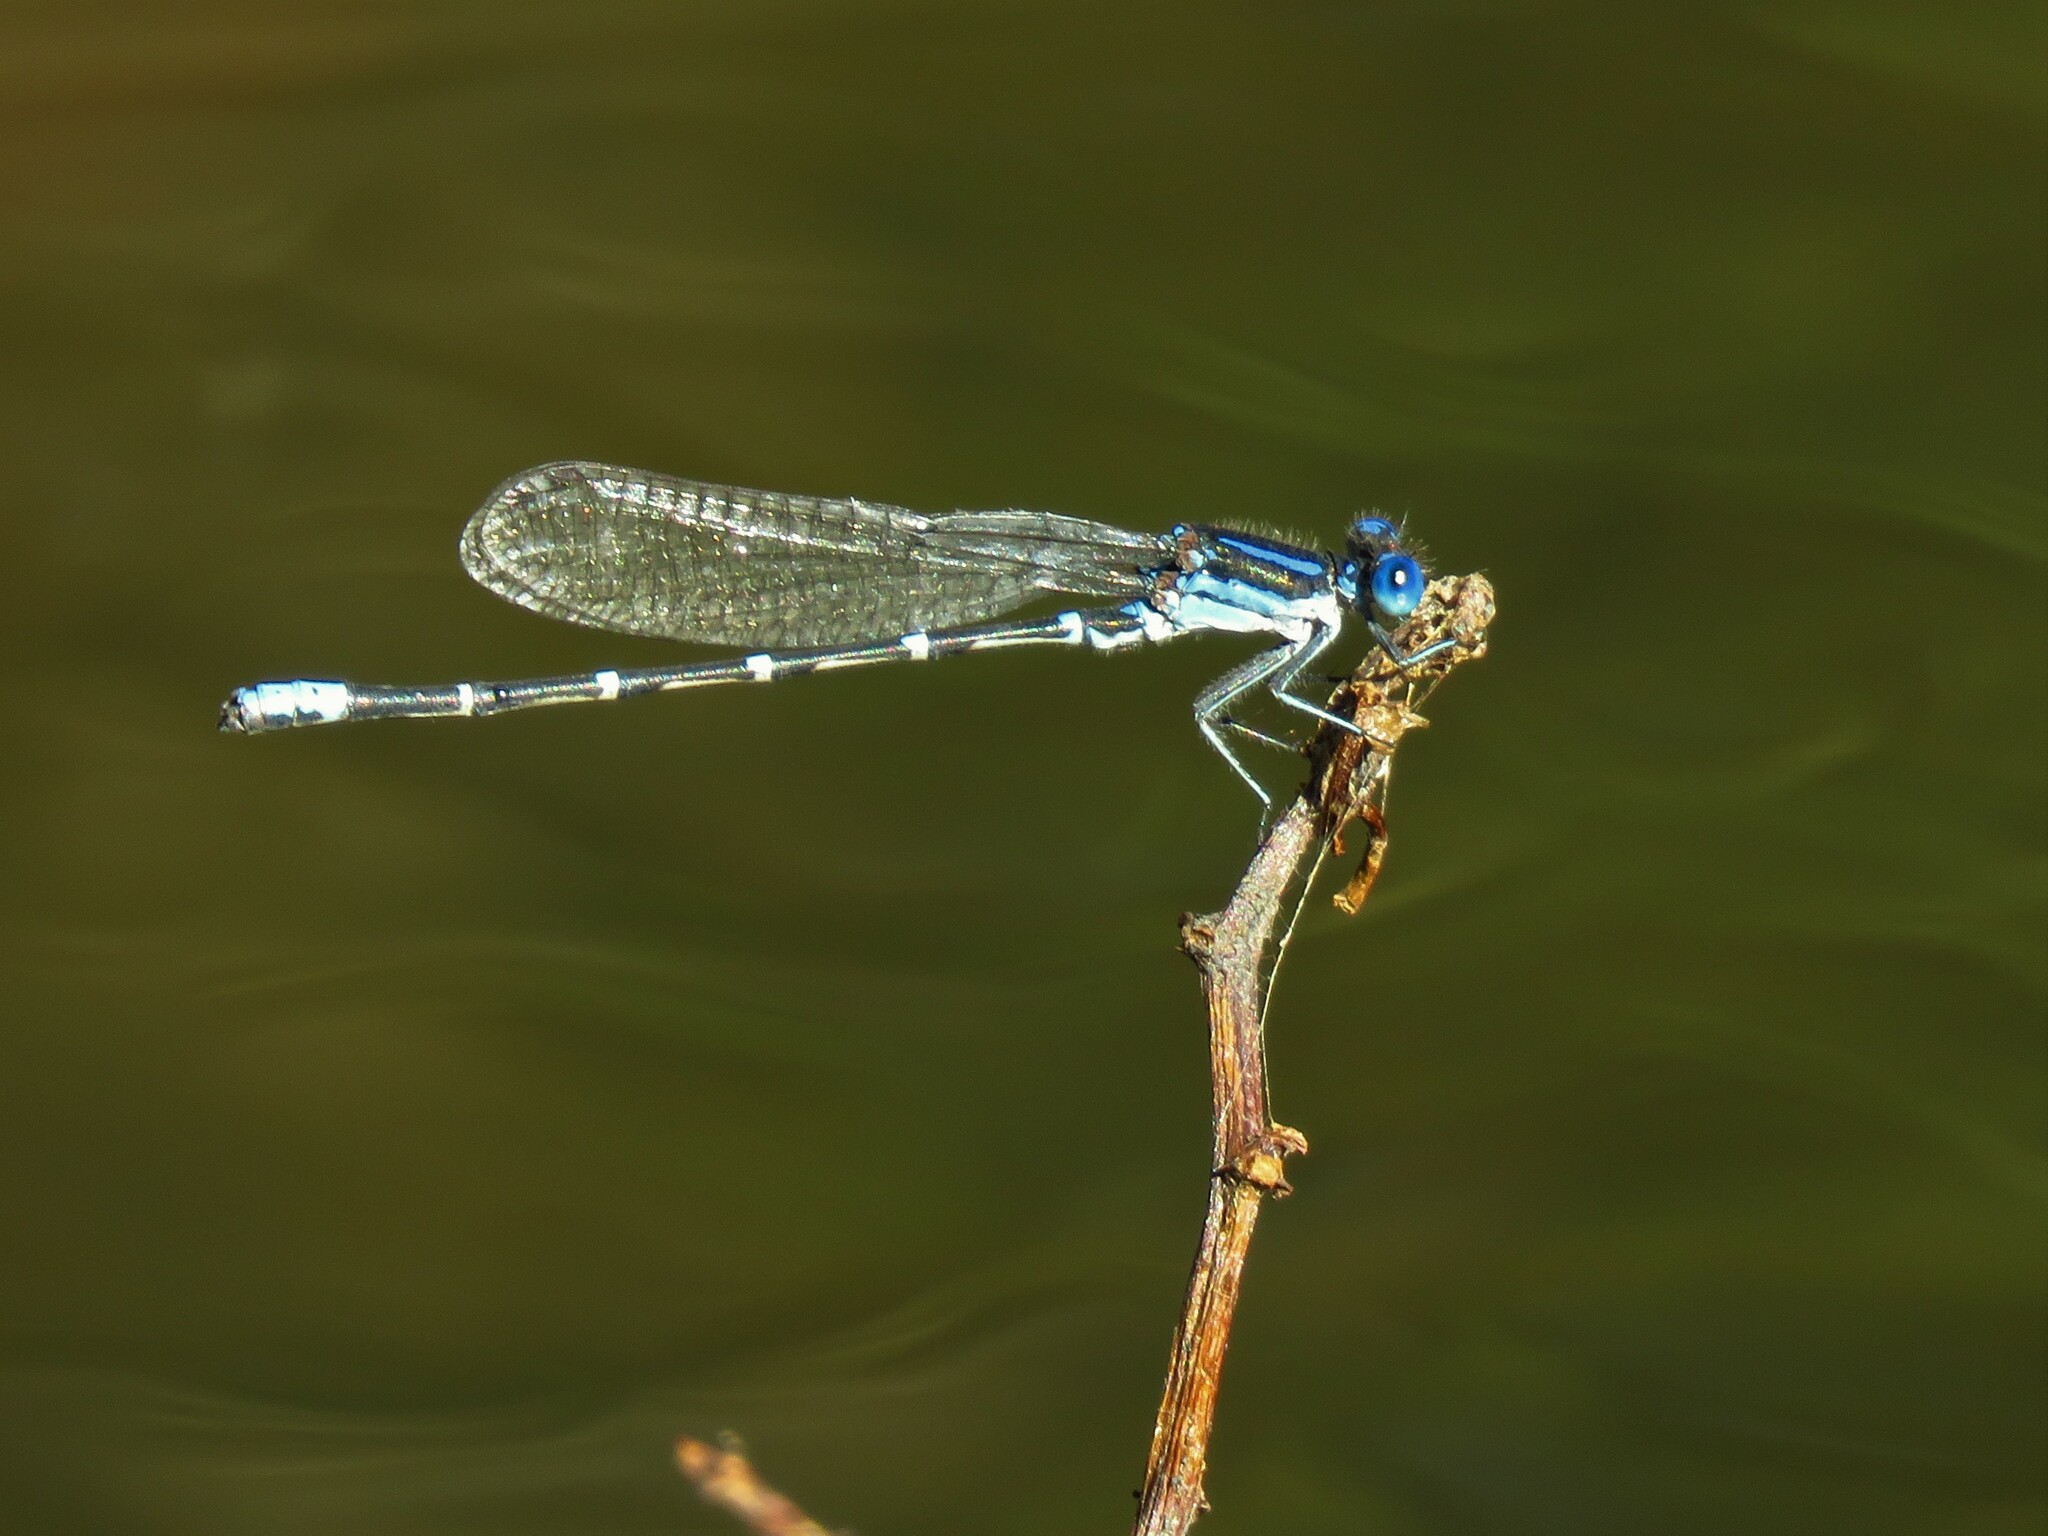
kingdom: Animalia
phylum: Arthropoda
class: Insecta
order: Odonata
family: Coenagrionidae
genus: Argia
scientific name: Argia sedula
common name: Blue-ringed dancer
